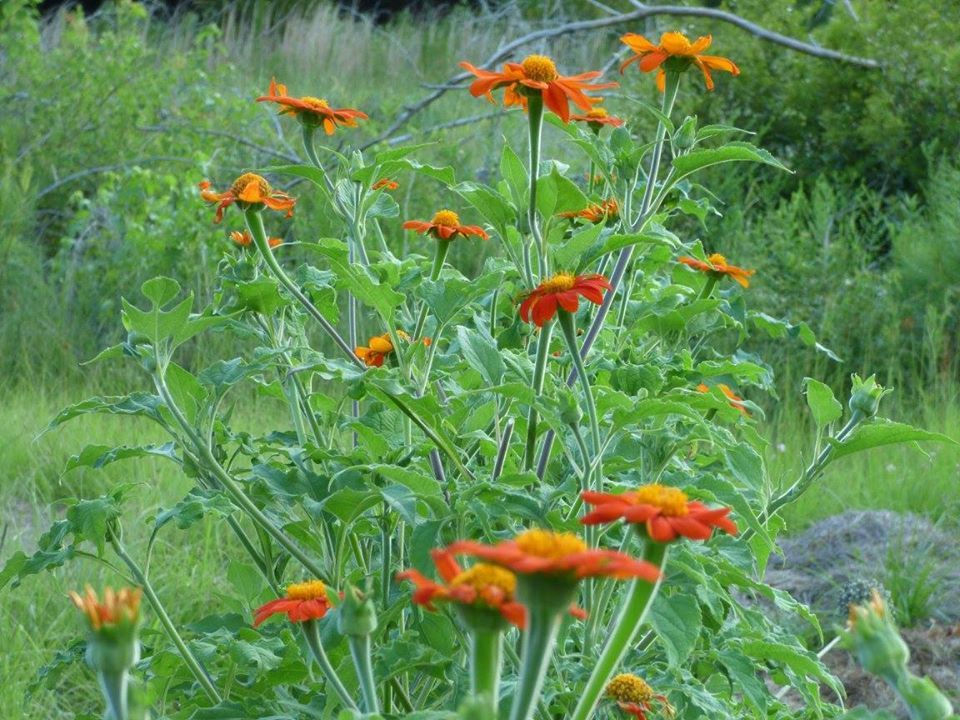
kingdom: Plantae
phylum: Tracheophyta
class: Magnoliopsida
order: Asterales
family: Asteraceae
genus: Tithonia
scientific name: Tithonia rotundifolia
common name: Sunflower
